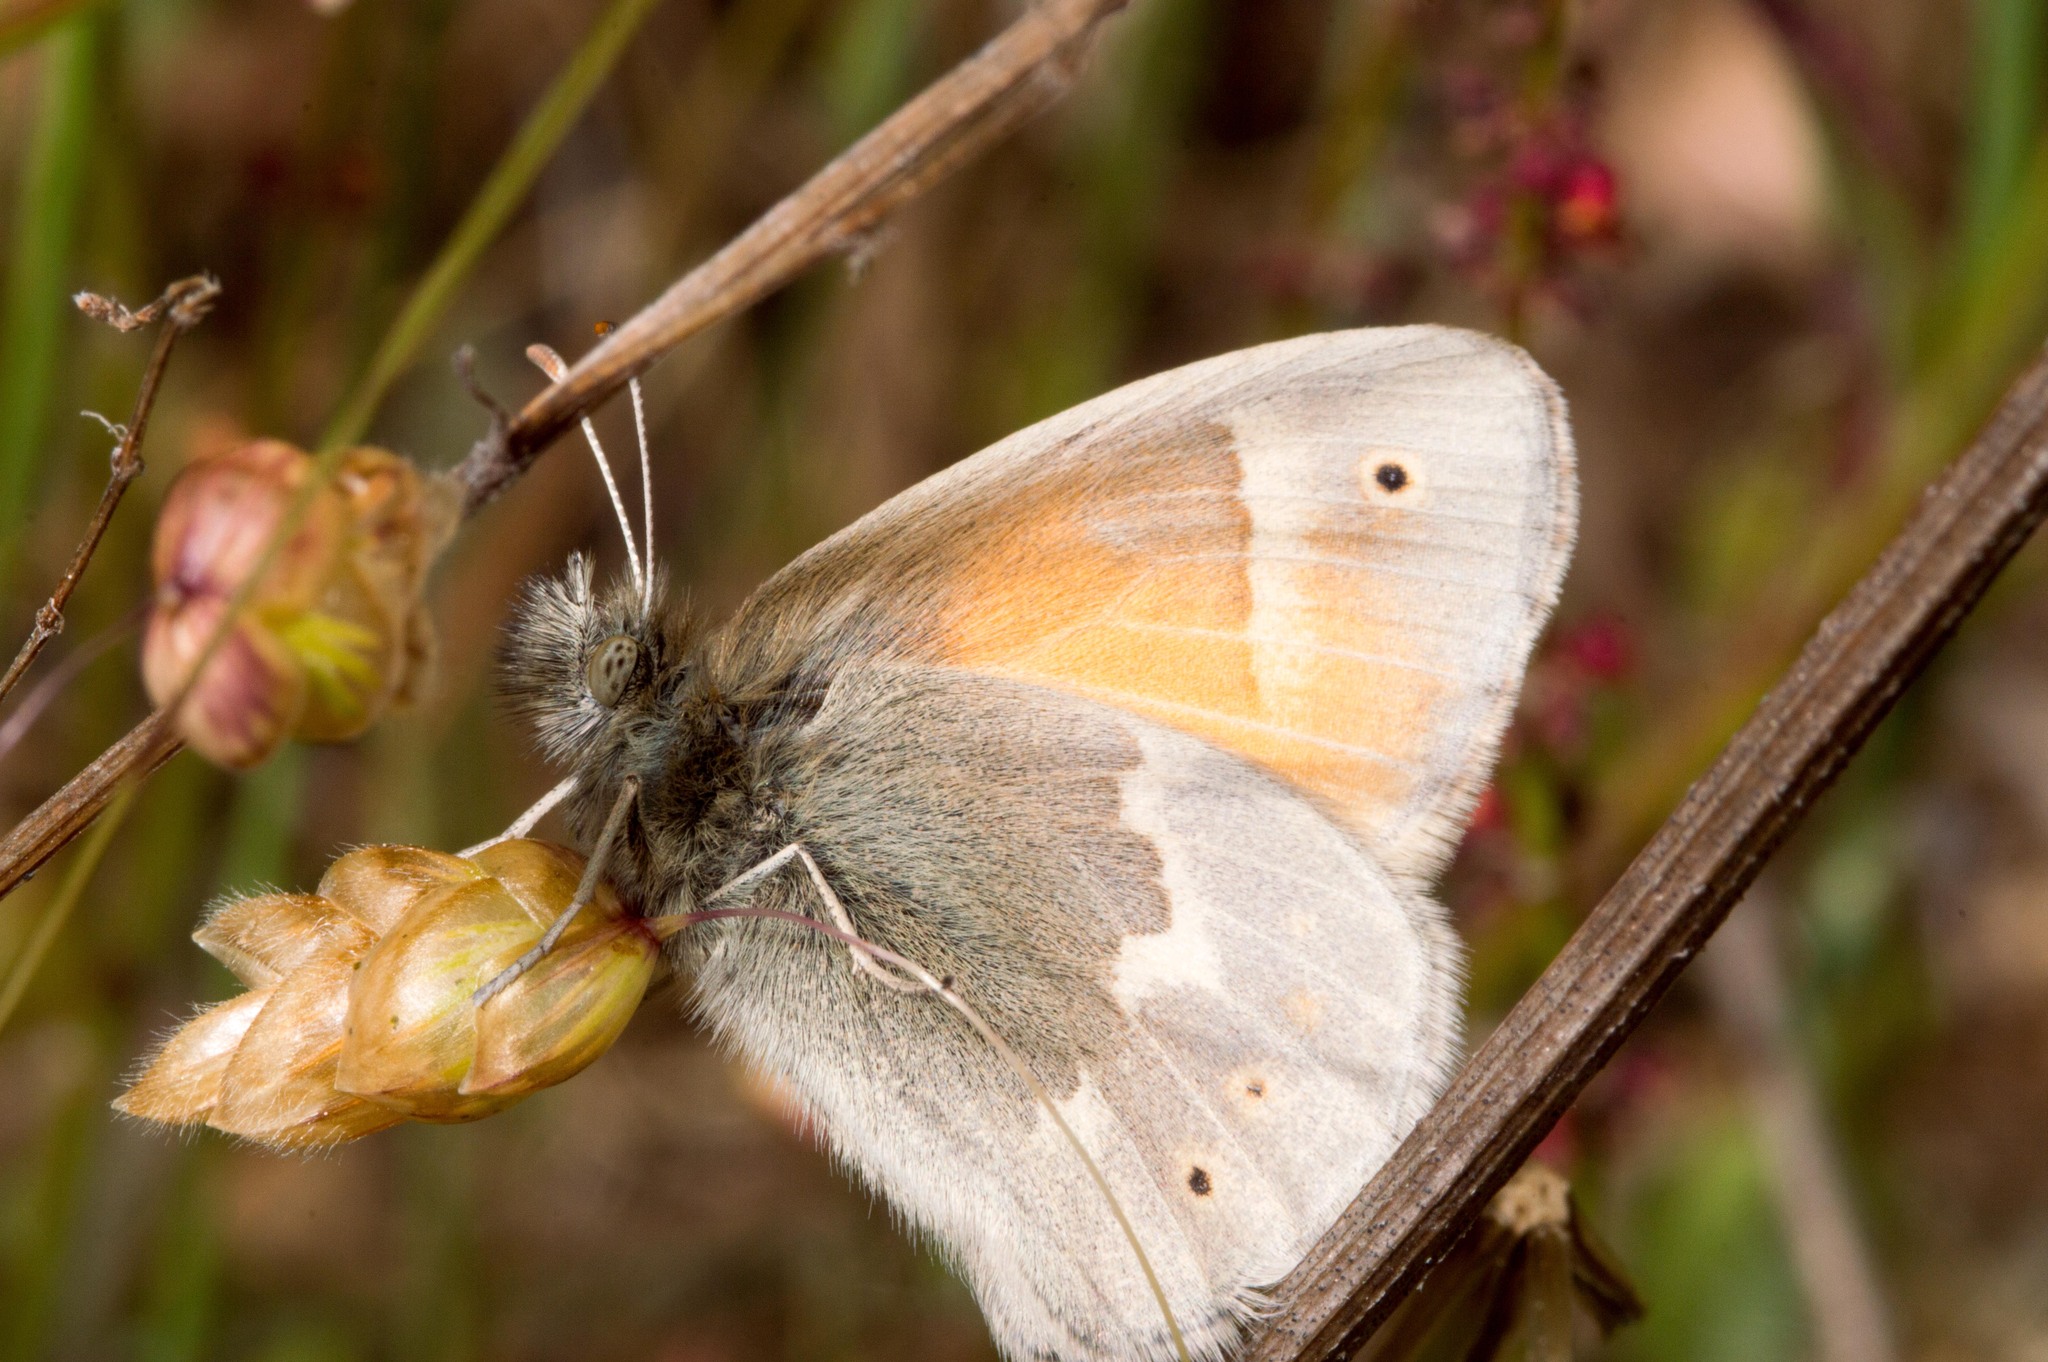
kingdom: Animalia
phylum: Arthropoda
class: Insecta
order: Lepidoptera
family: Nymphalidae
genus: Coenonympha
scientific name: Coenonympha california
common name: Common ringlet
